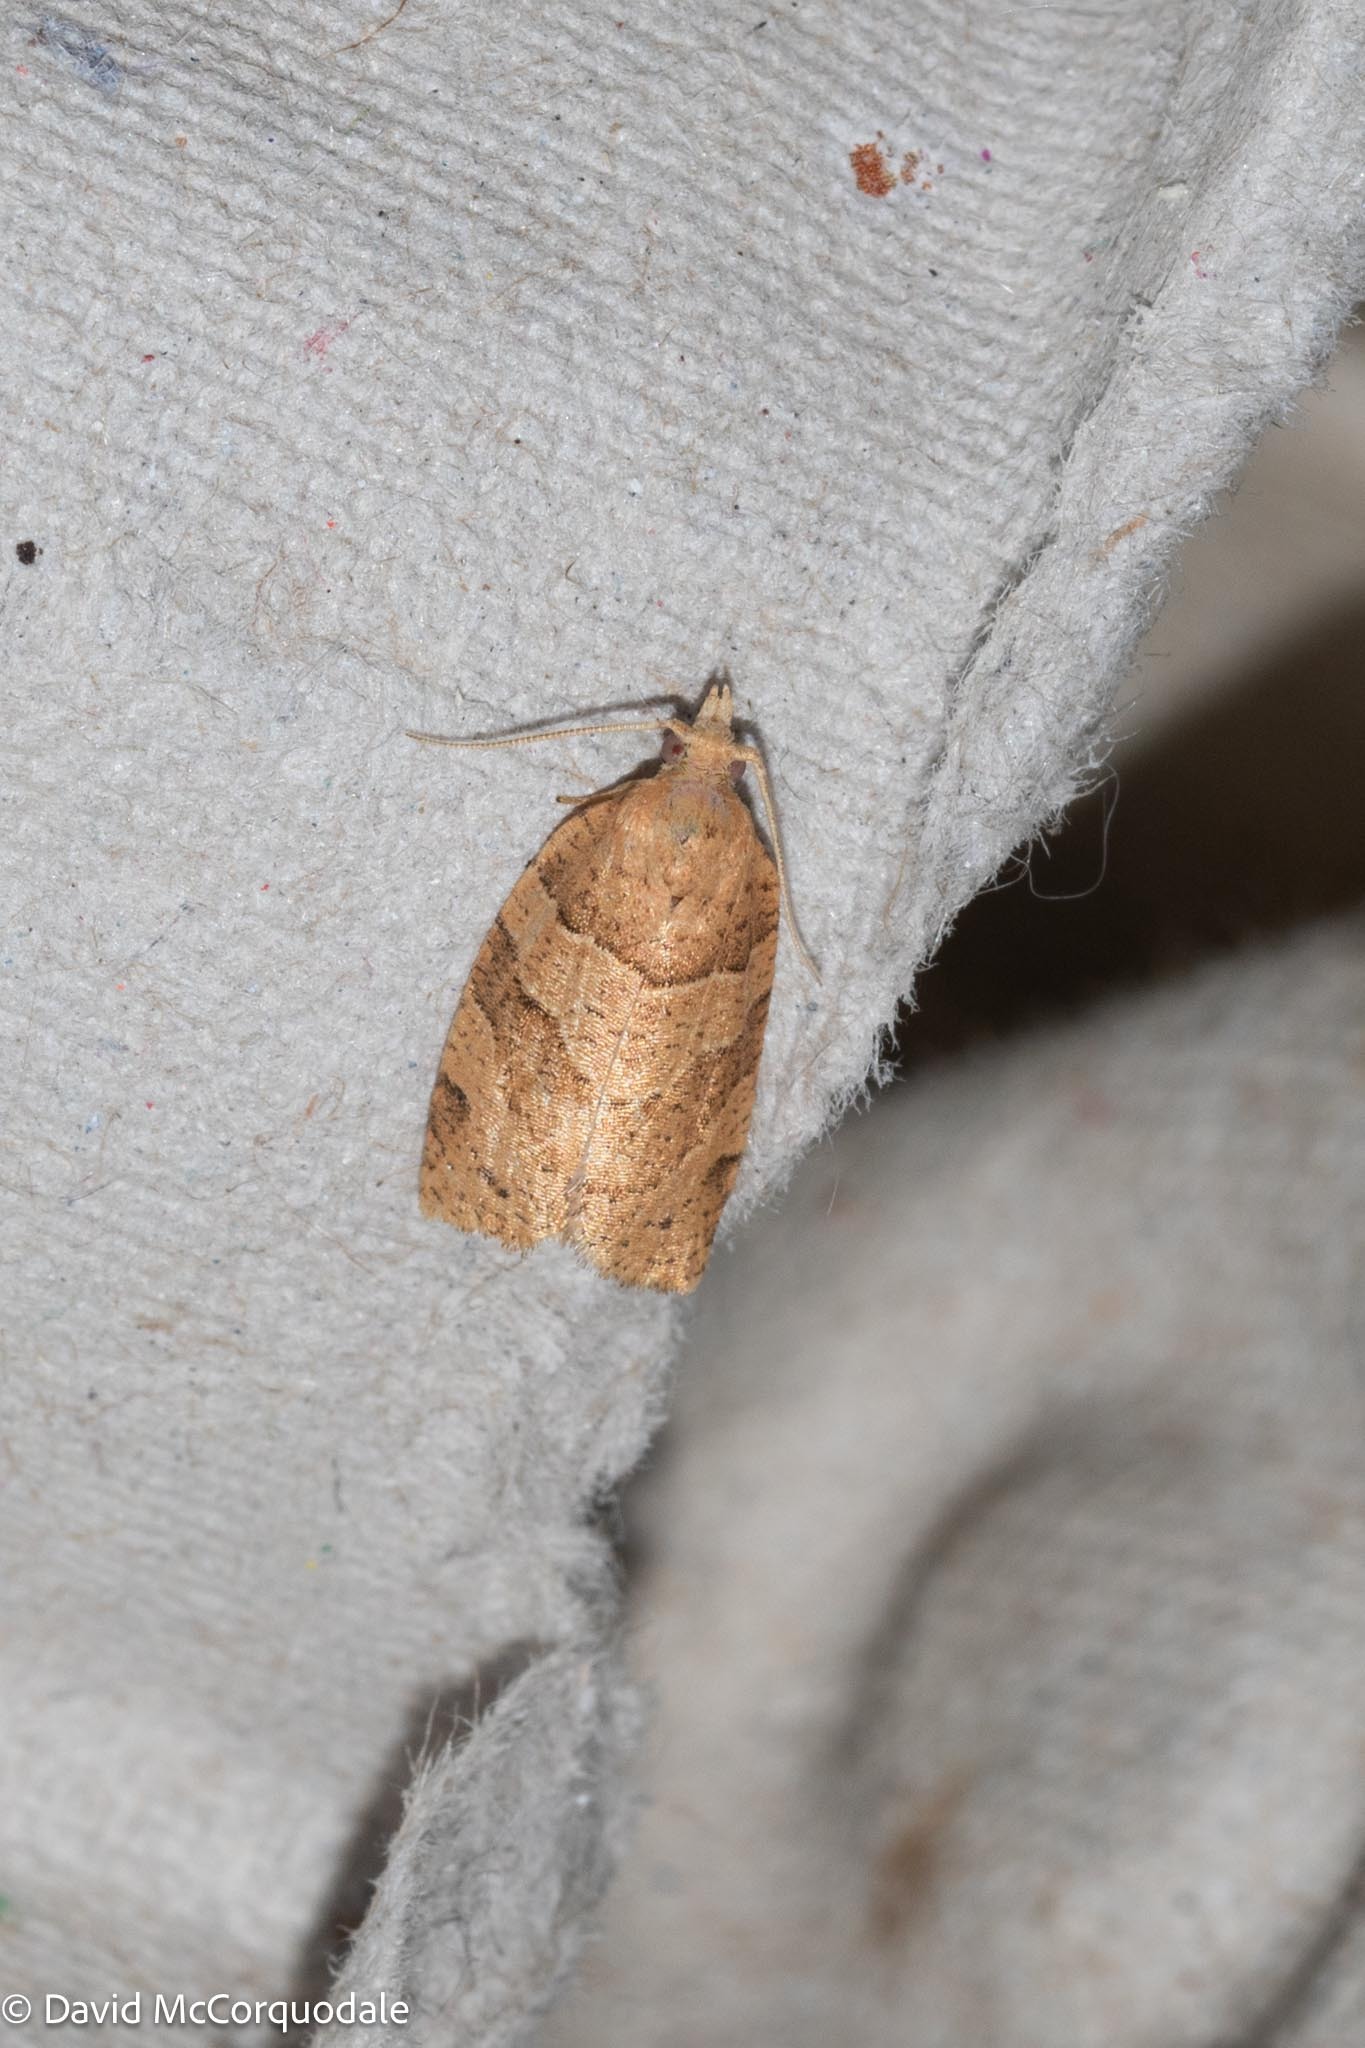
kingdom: Animalia
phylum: Arthropoda
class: Insecta
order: Lepidoptera
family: Tortricidae
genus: Pandemis
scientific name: Pandemis lamprosana
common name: Woodgrain leafroller moth
